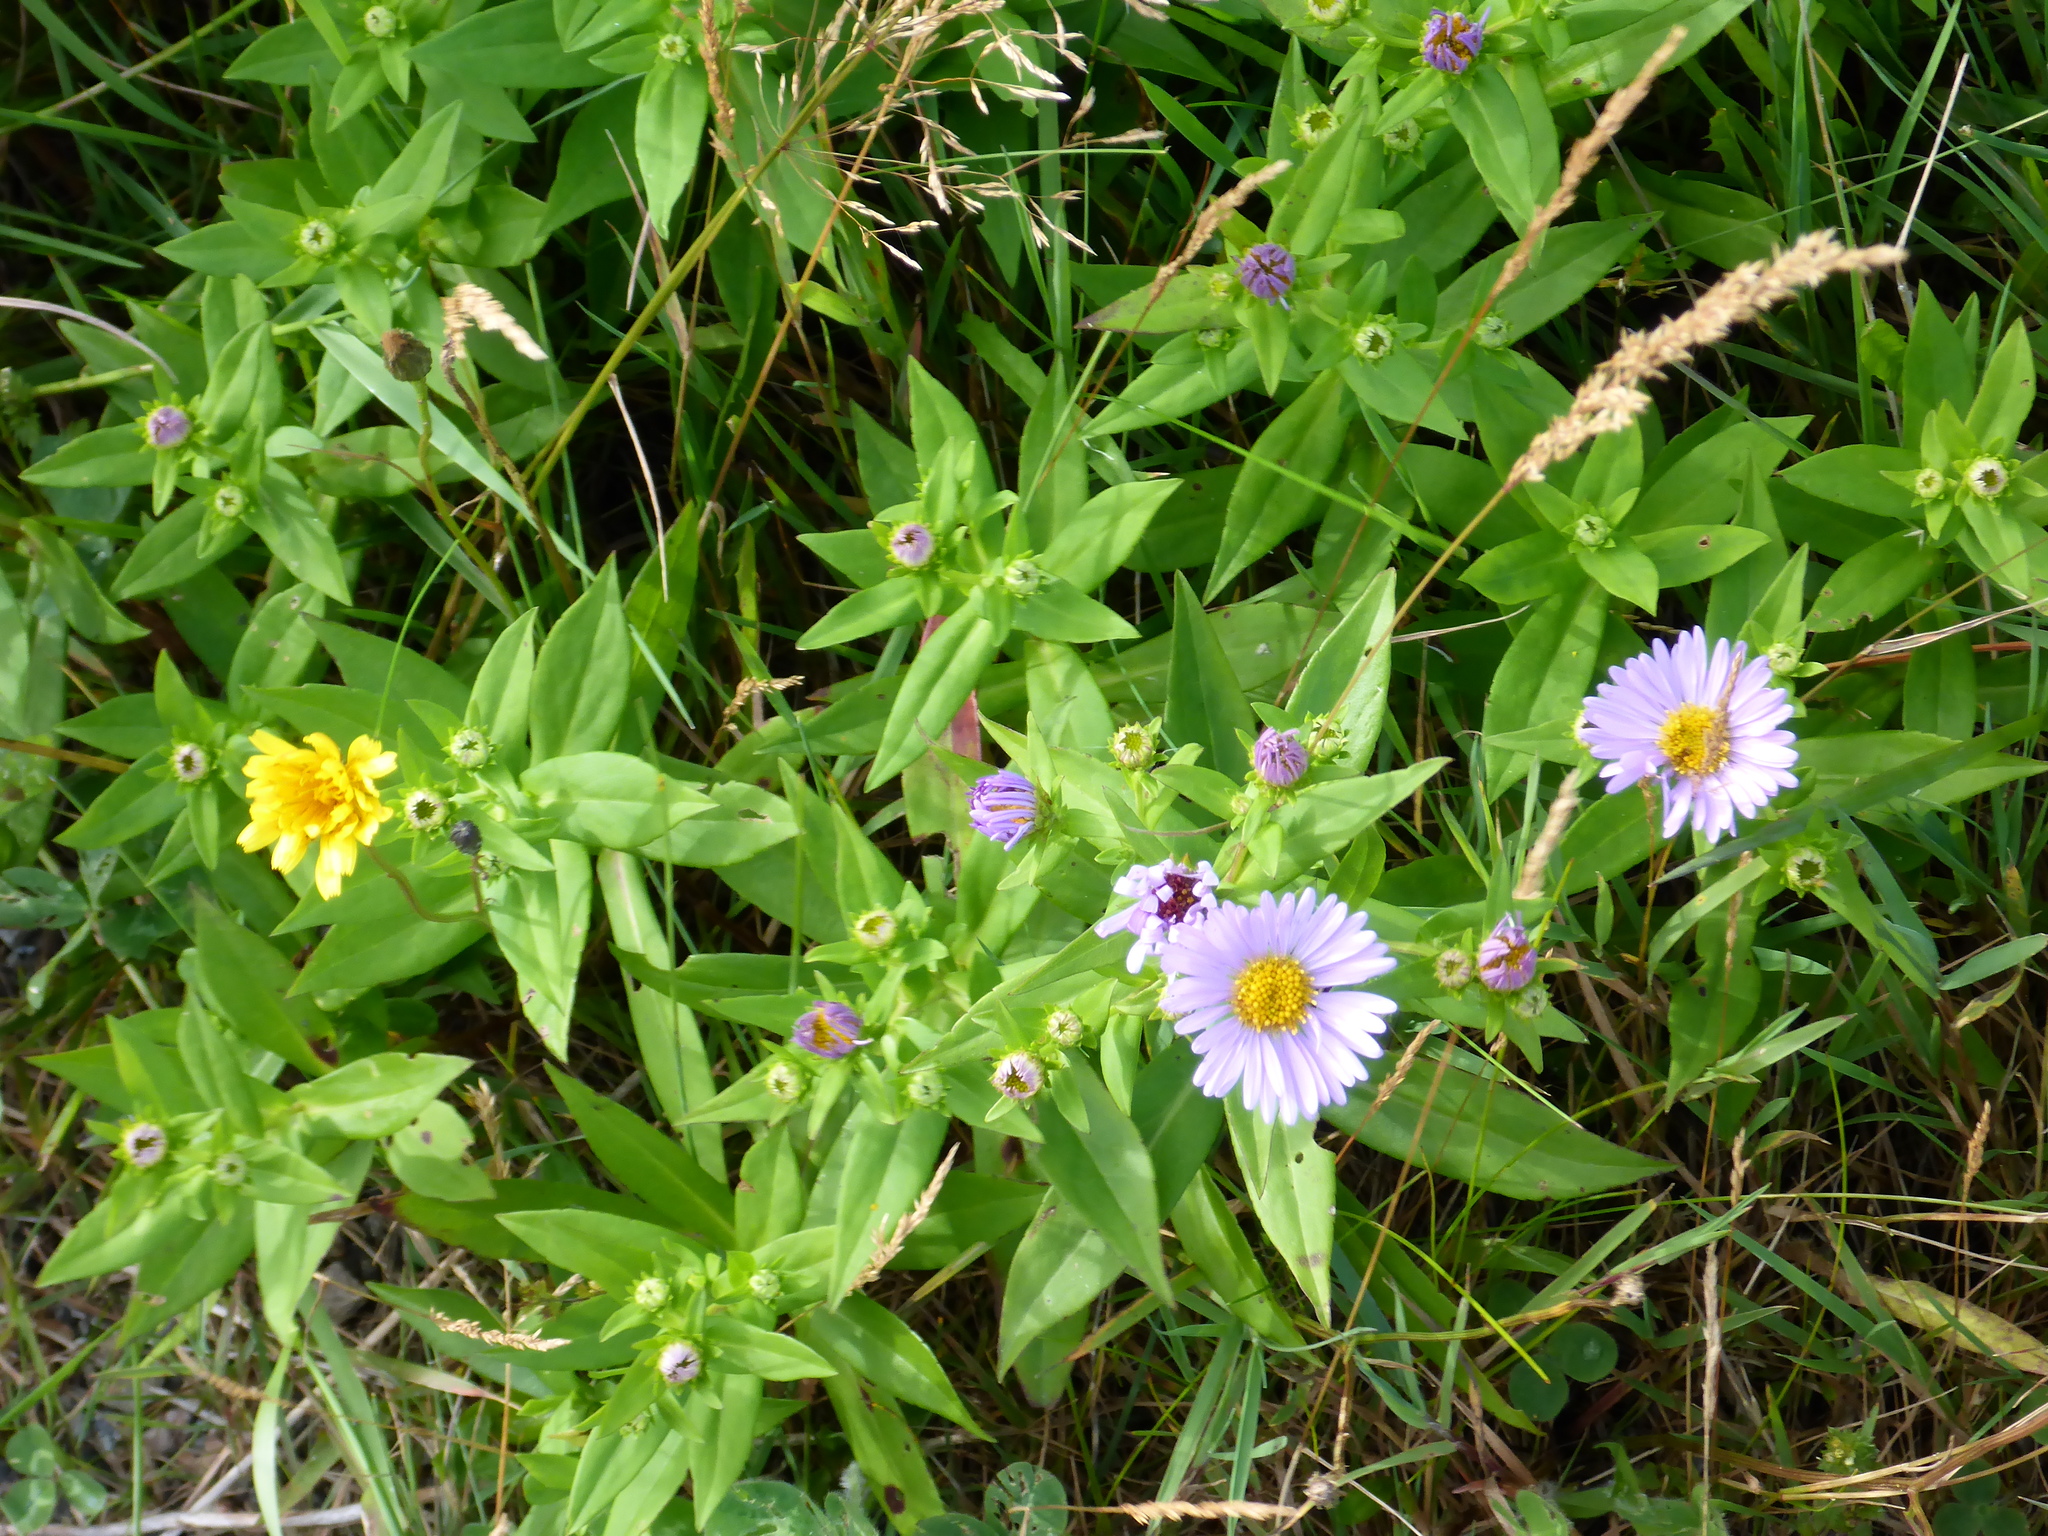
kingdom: Plantae
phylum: Tracheophyta
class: Magnoliopsida
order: Asterales
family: Asteraceae
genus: Symphyotrichum
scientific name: Symphyotrichum novi-belgii
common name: Michaelmas daisy
